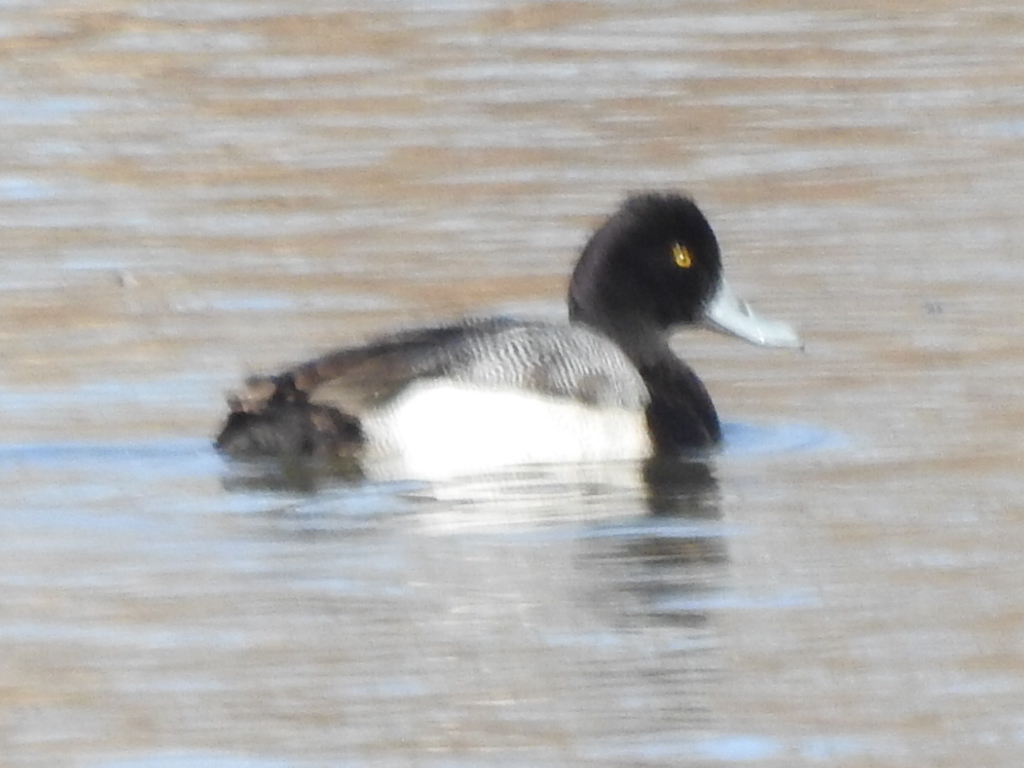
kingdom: Animalia
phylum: Chordata
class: Aves
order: Anseriformes
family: Anatidae
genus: Aythya
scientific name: Aythya affinis
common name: Lesser scaup
